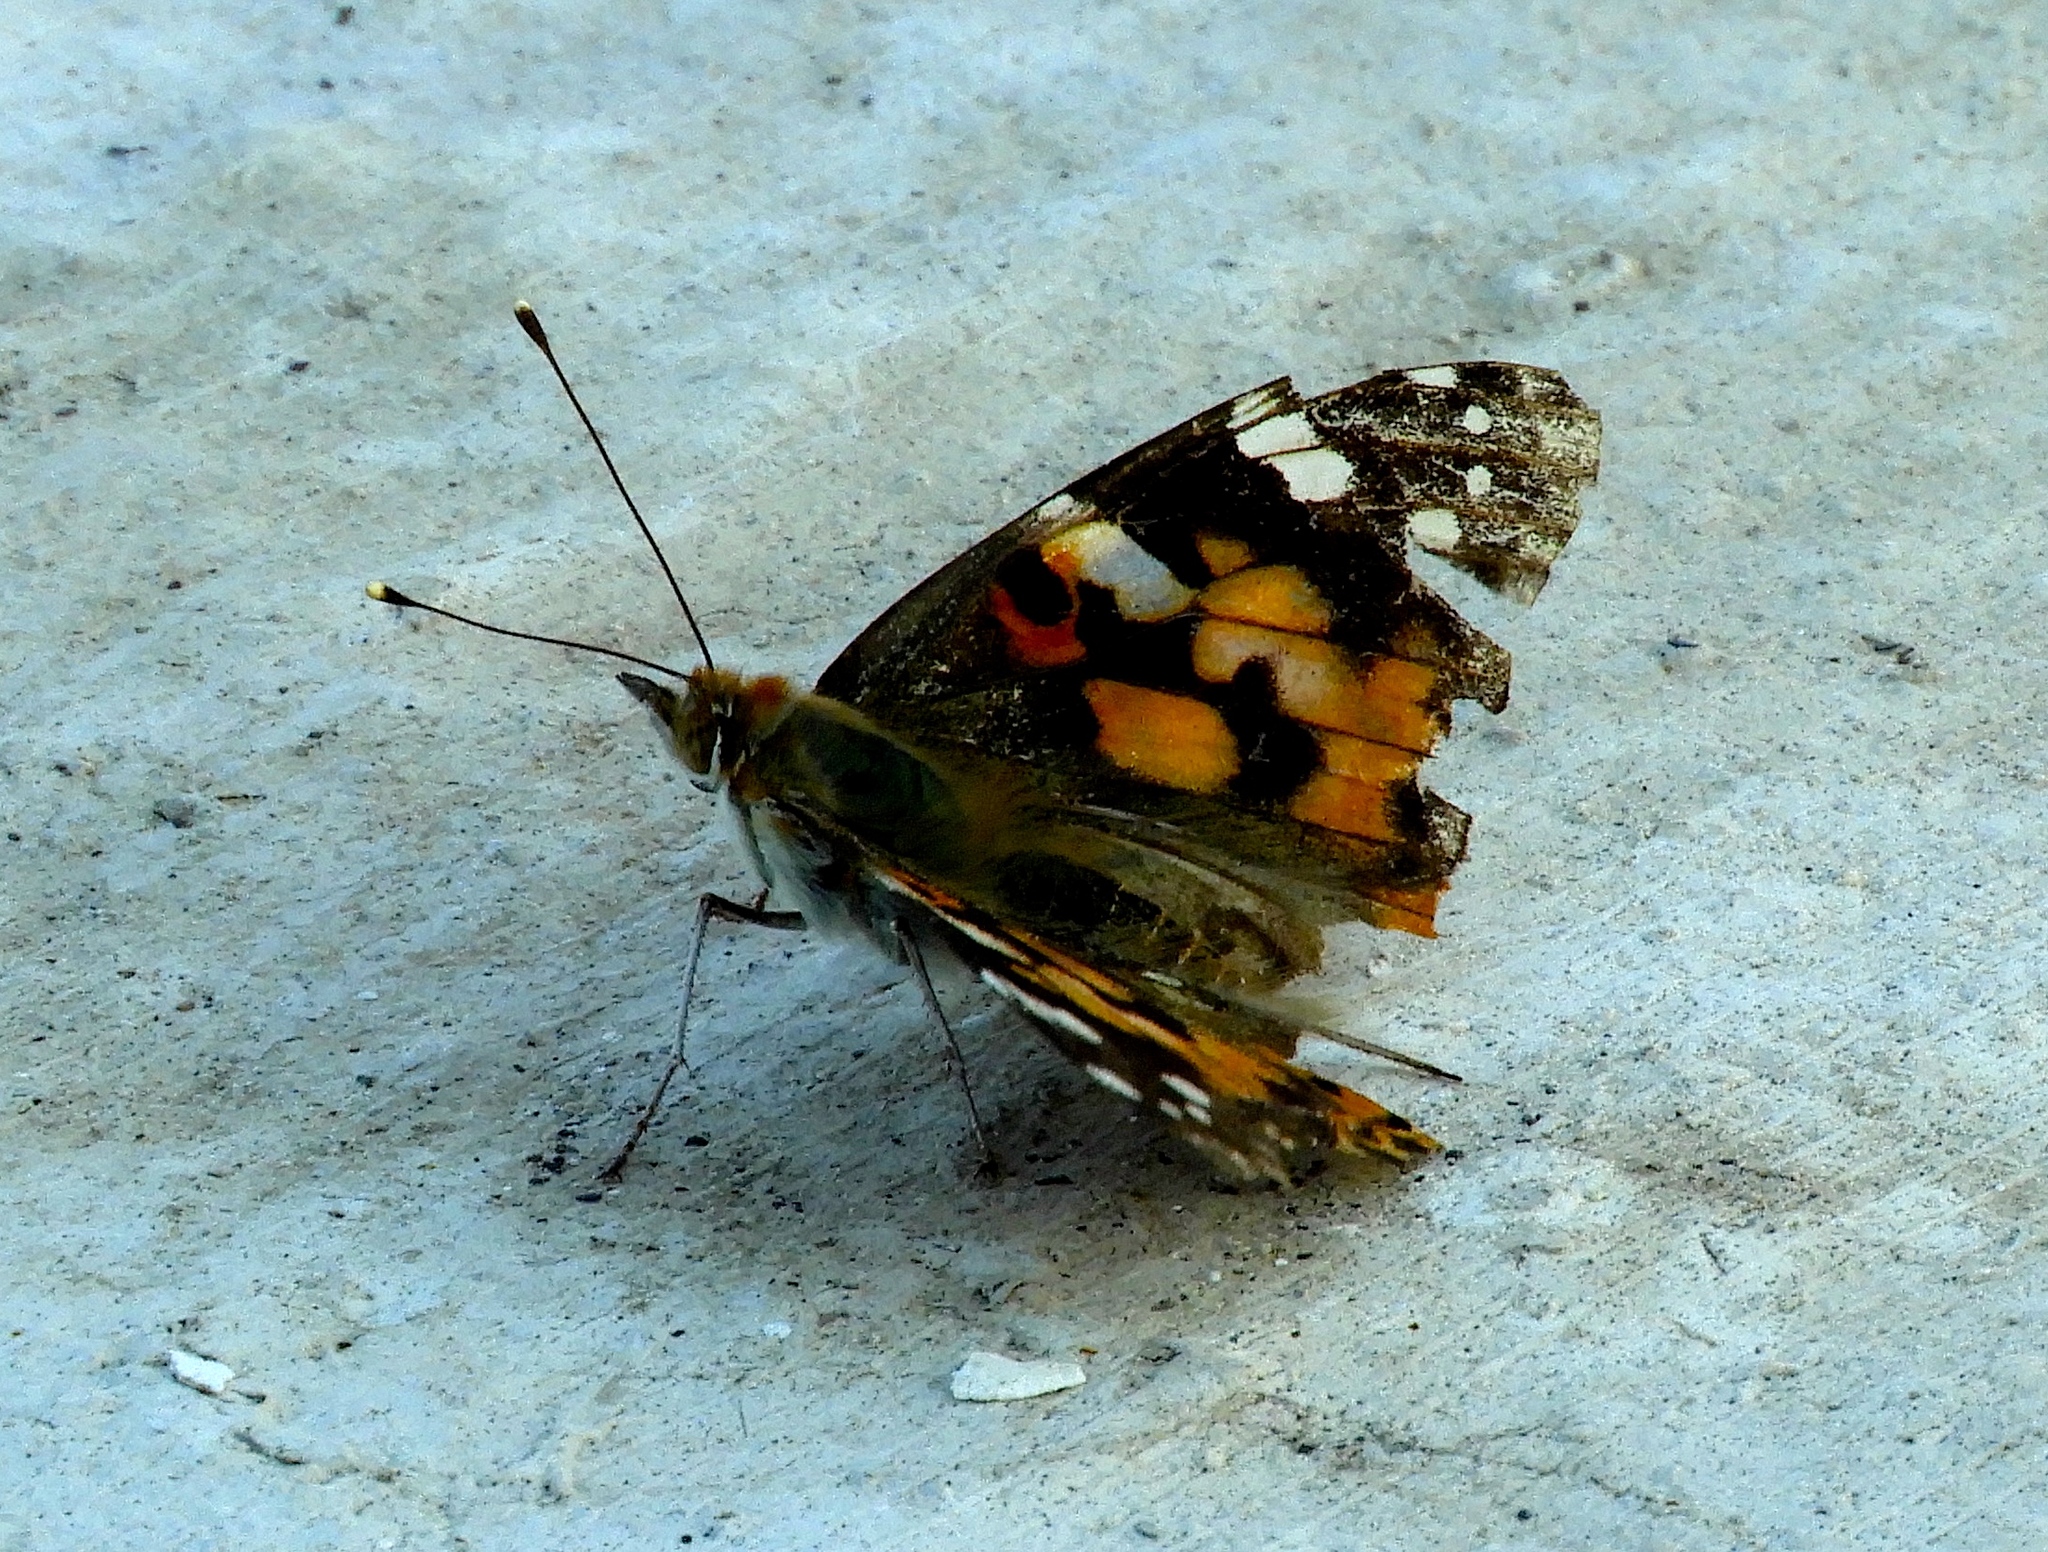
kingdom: Animalia
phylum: Arthropoda
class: Insecta
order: Lepidoptera
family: Nymphalidae
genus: Vanessa
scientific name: Vanessa cardui
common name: Painted lady
